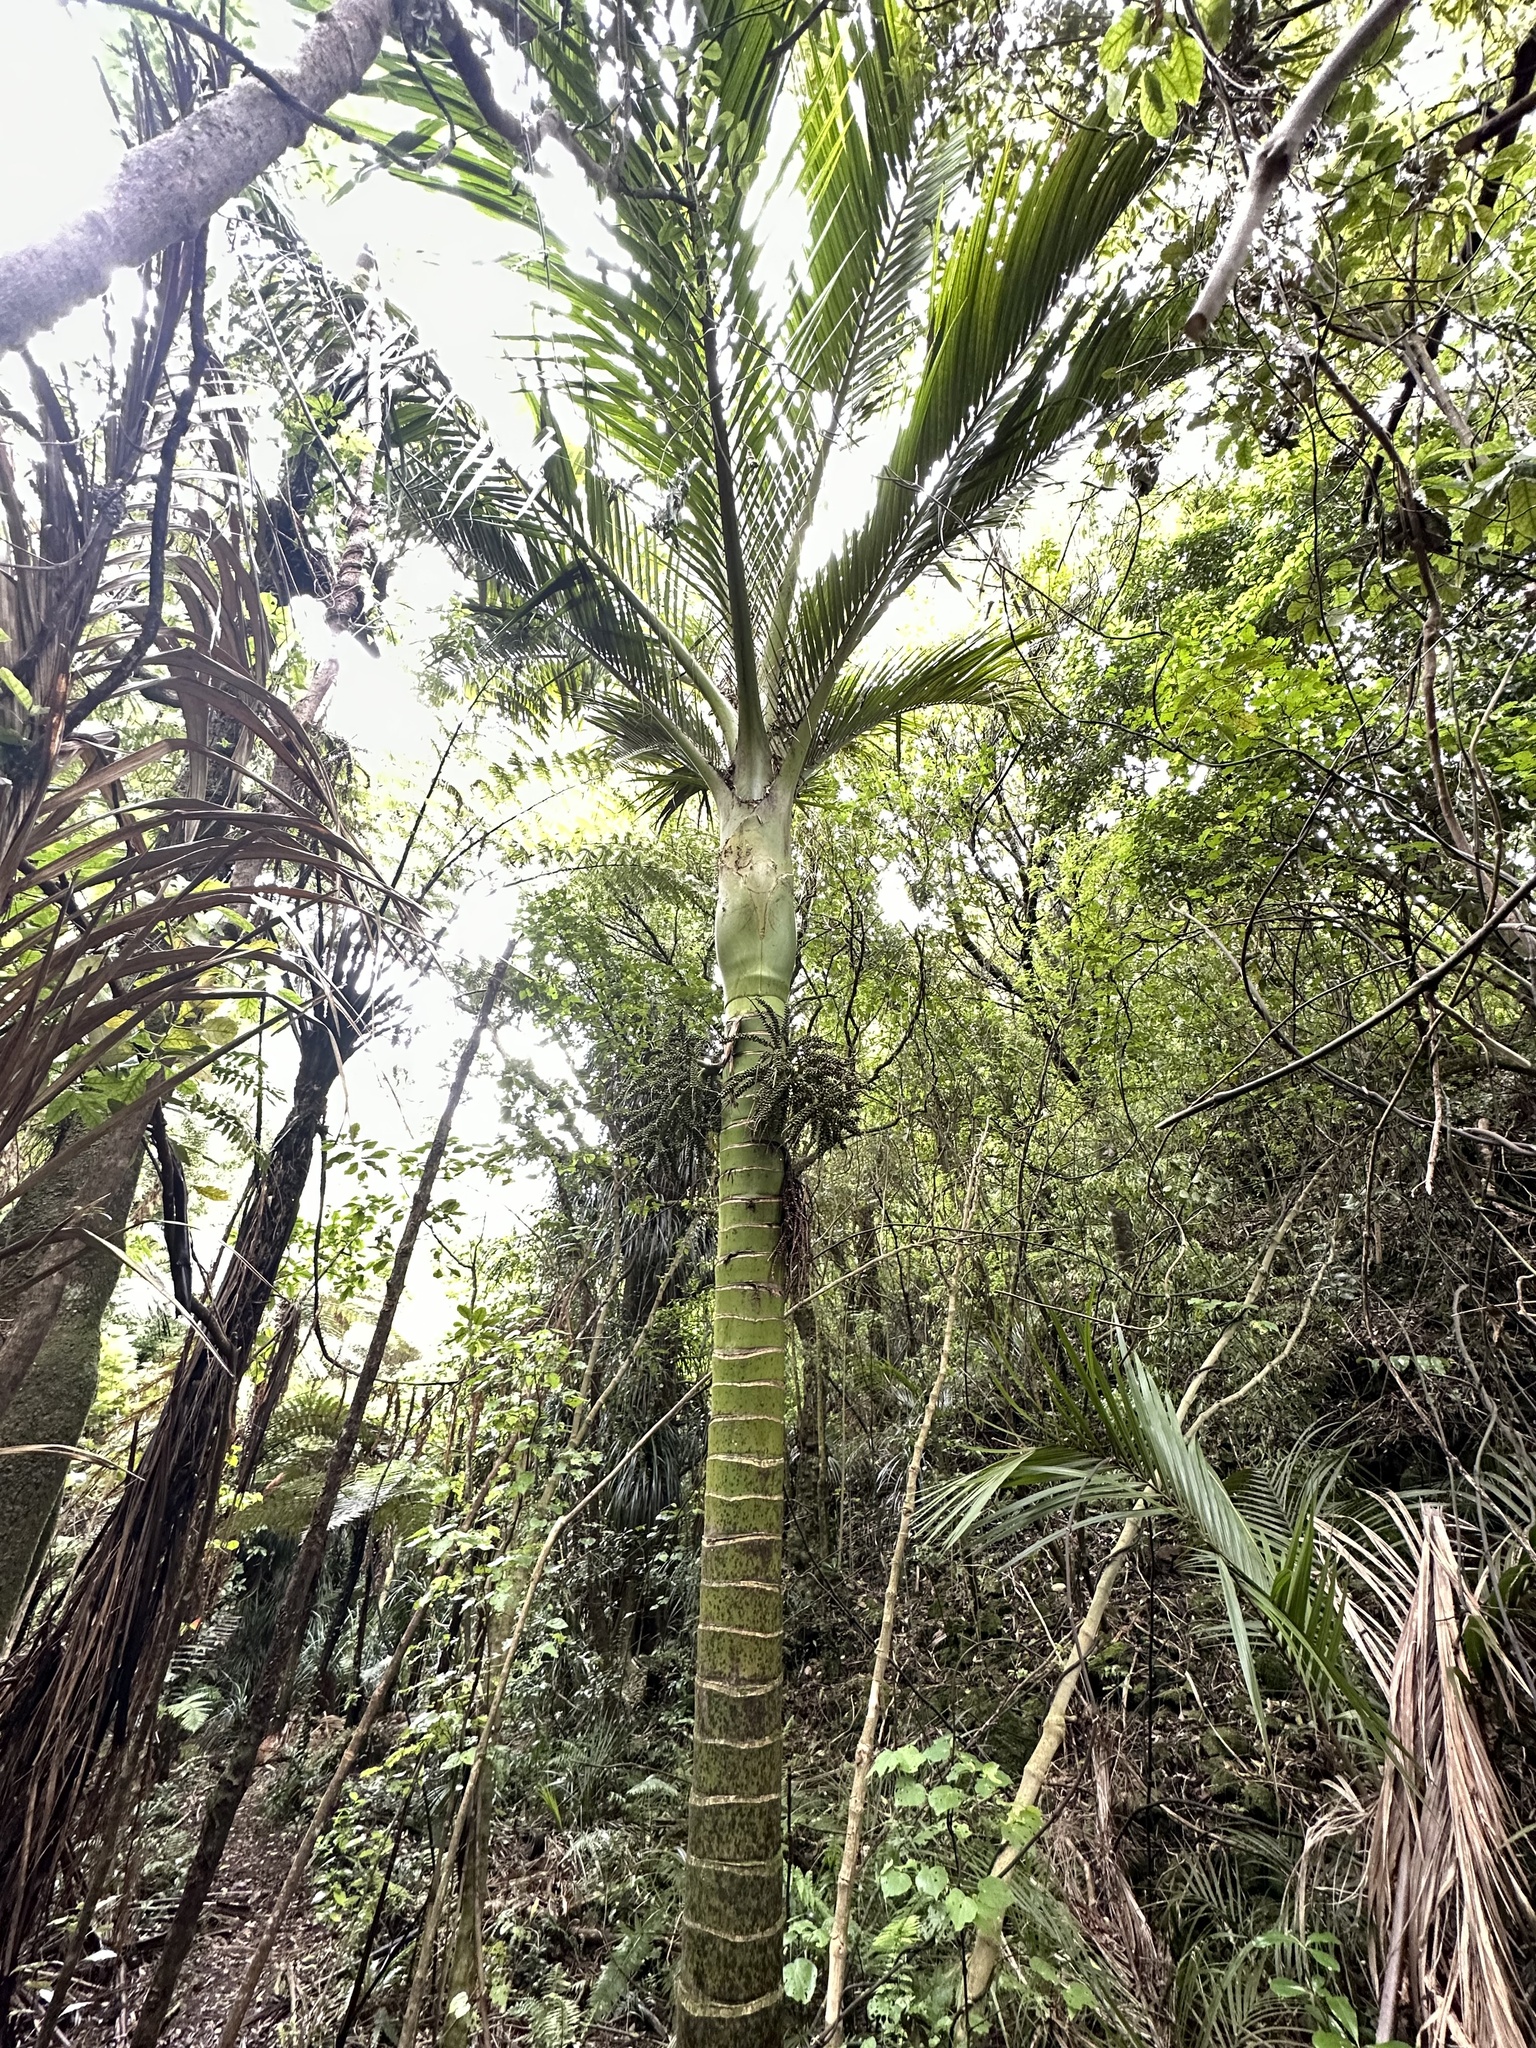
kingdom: Plantae
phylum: Tracheophyta
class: Liliopsida
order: Arecales
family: Arecaceae
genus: Rhopalostylis
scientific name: Rhopalostylis sapida
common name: Feather-duster palm
